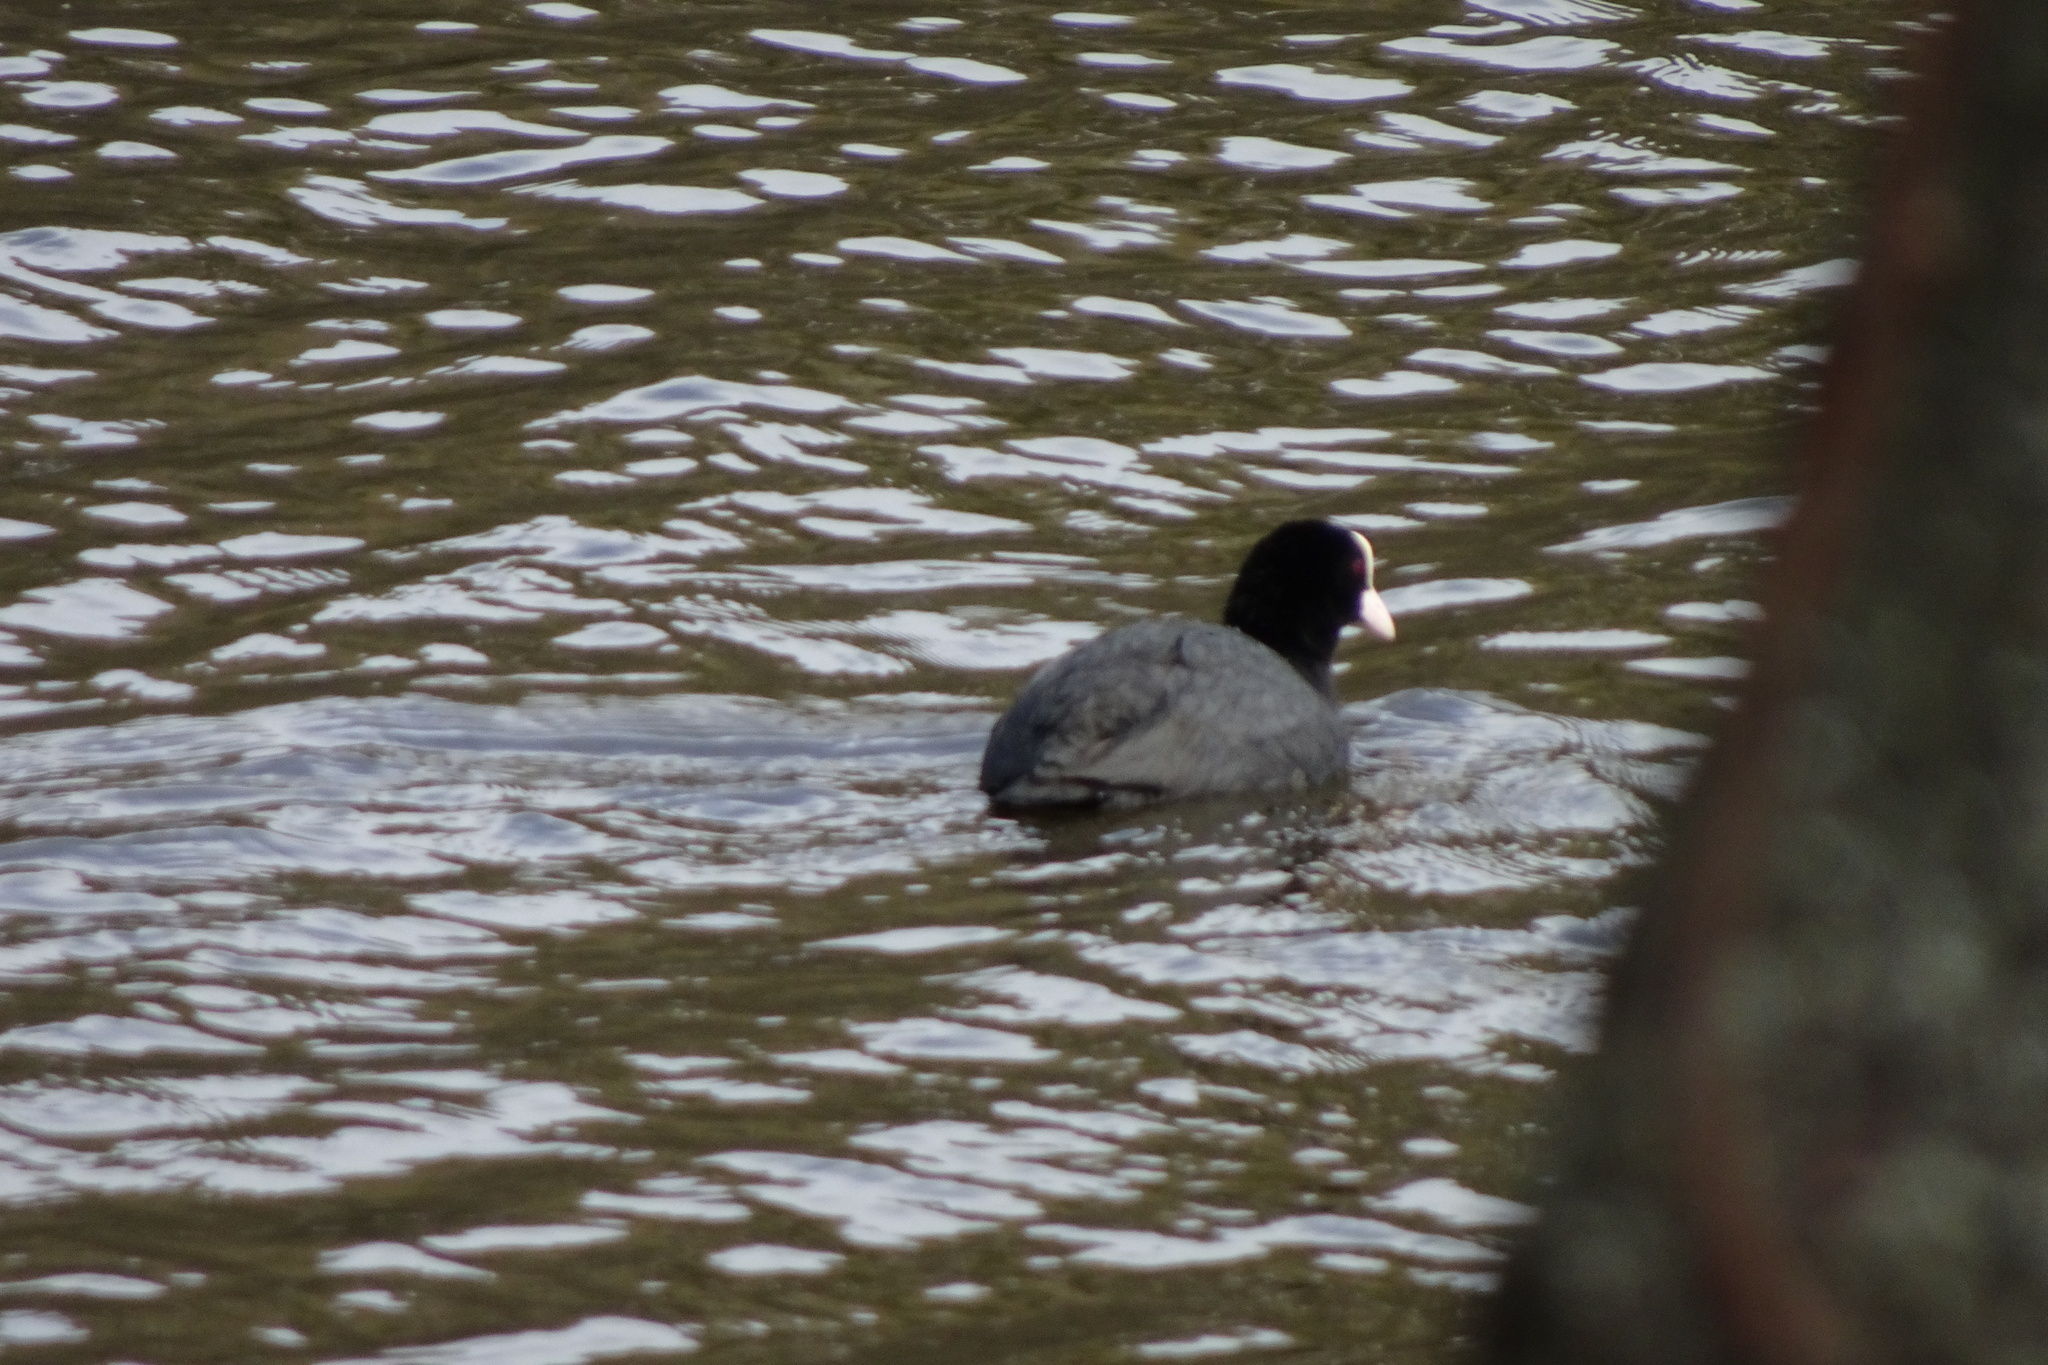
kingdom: Animalia
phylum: Chordata
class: Aves
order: Gruiformes
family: Rallidae
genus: Fulica
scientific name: Fulica atra
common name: Eurasian coot
